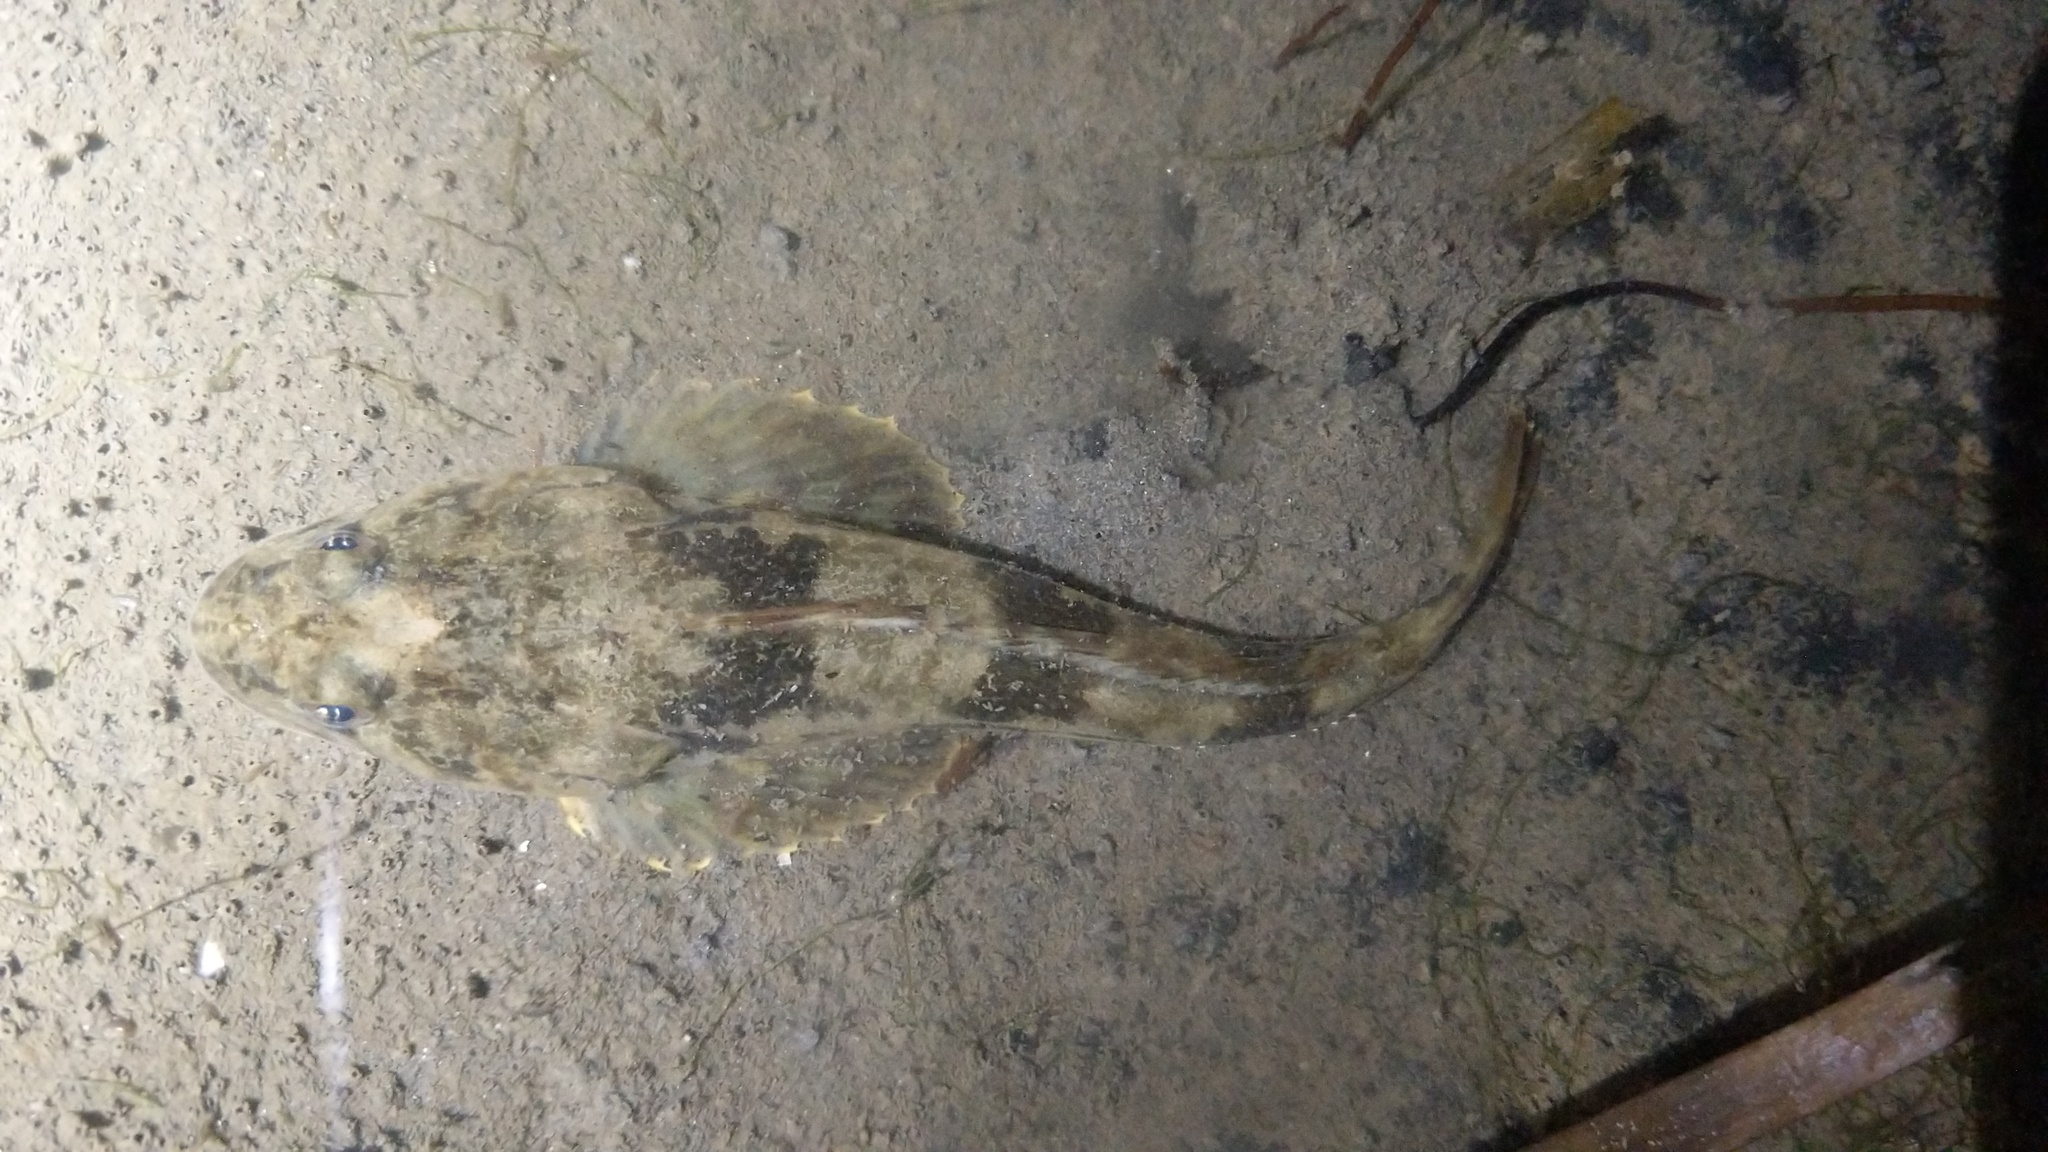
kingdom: Animalia
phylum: Chordata
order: Scorpaeniformes
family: Cottidae
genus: Leptocottus
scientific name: Leptocottus armatus
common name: Pacific staghorn sculpin
